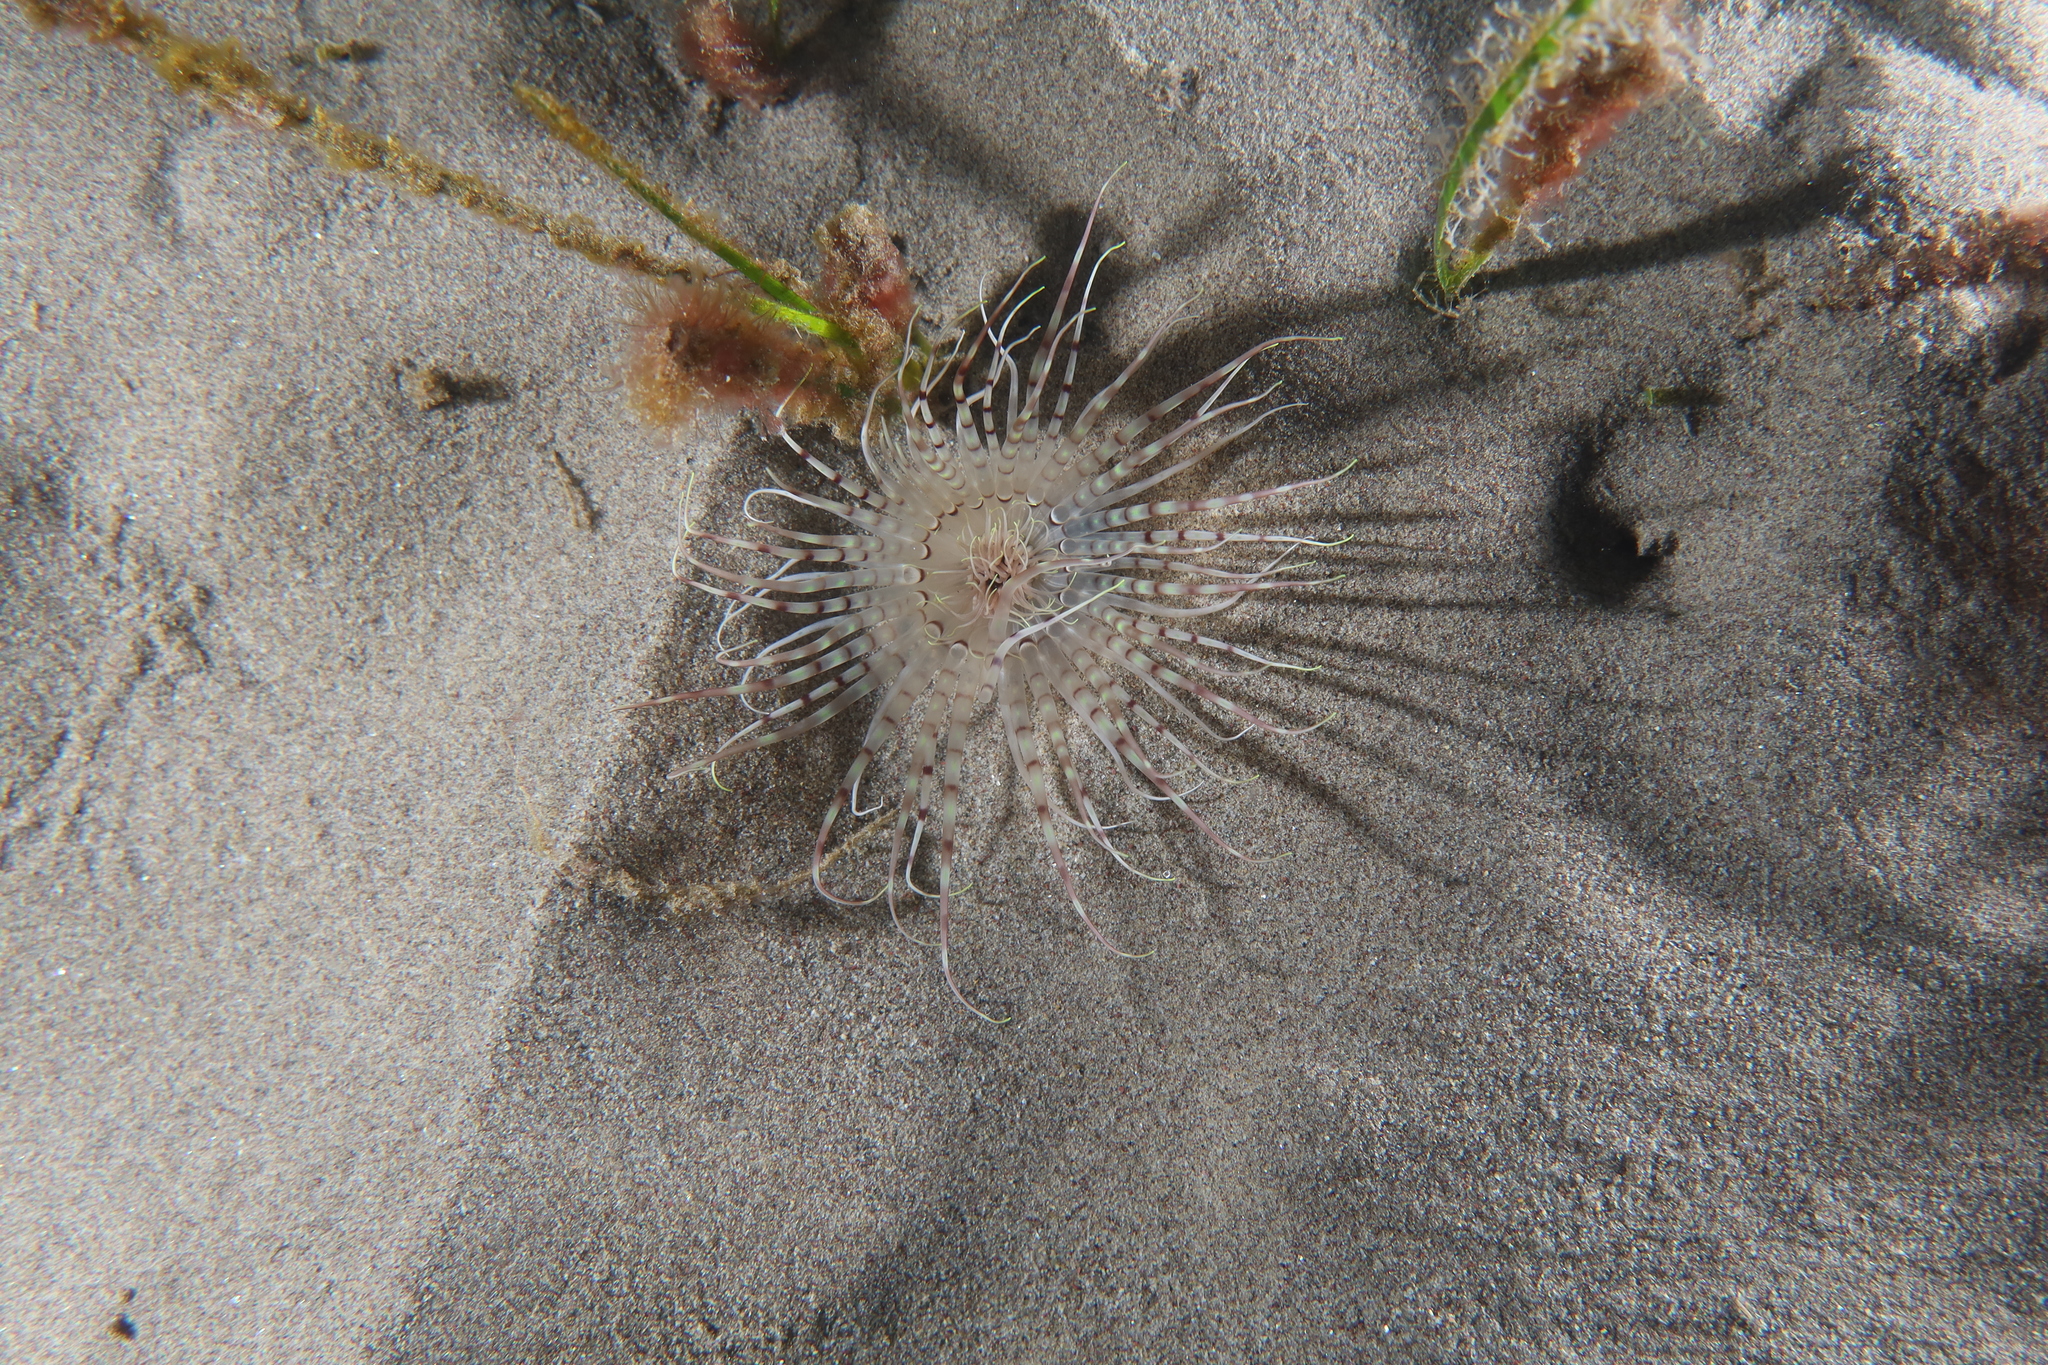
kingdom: Animalia
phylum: Cnidaria
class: Anthozoa
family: Cerianthidae
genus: Pachycerianthus
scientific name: Pachycerianthus solitarius
